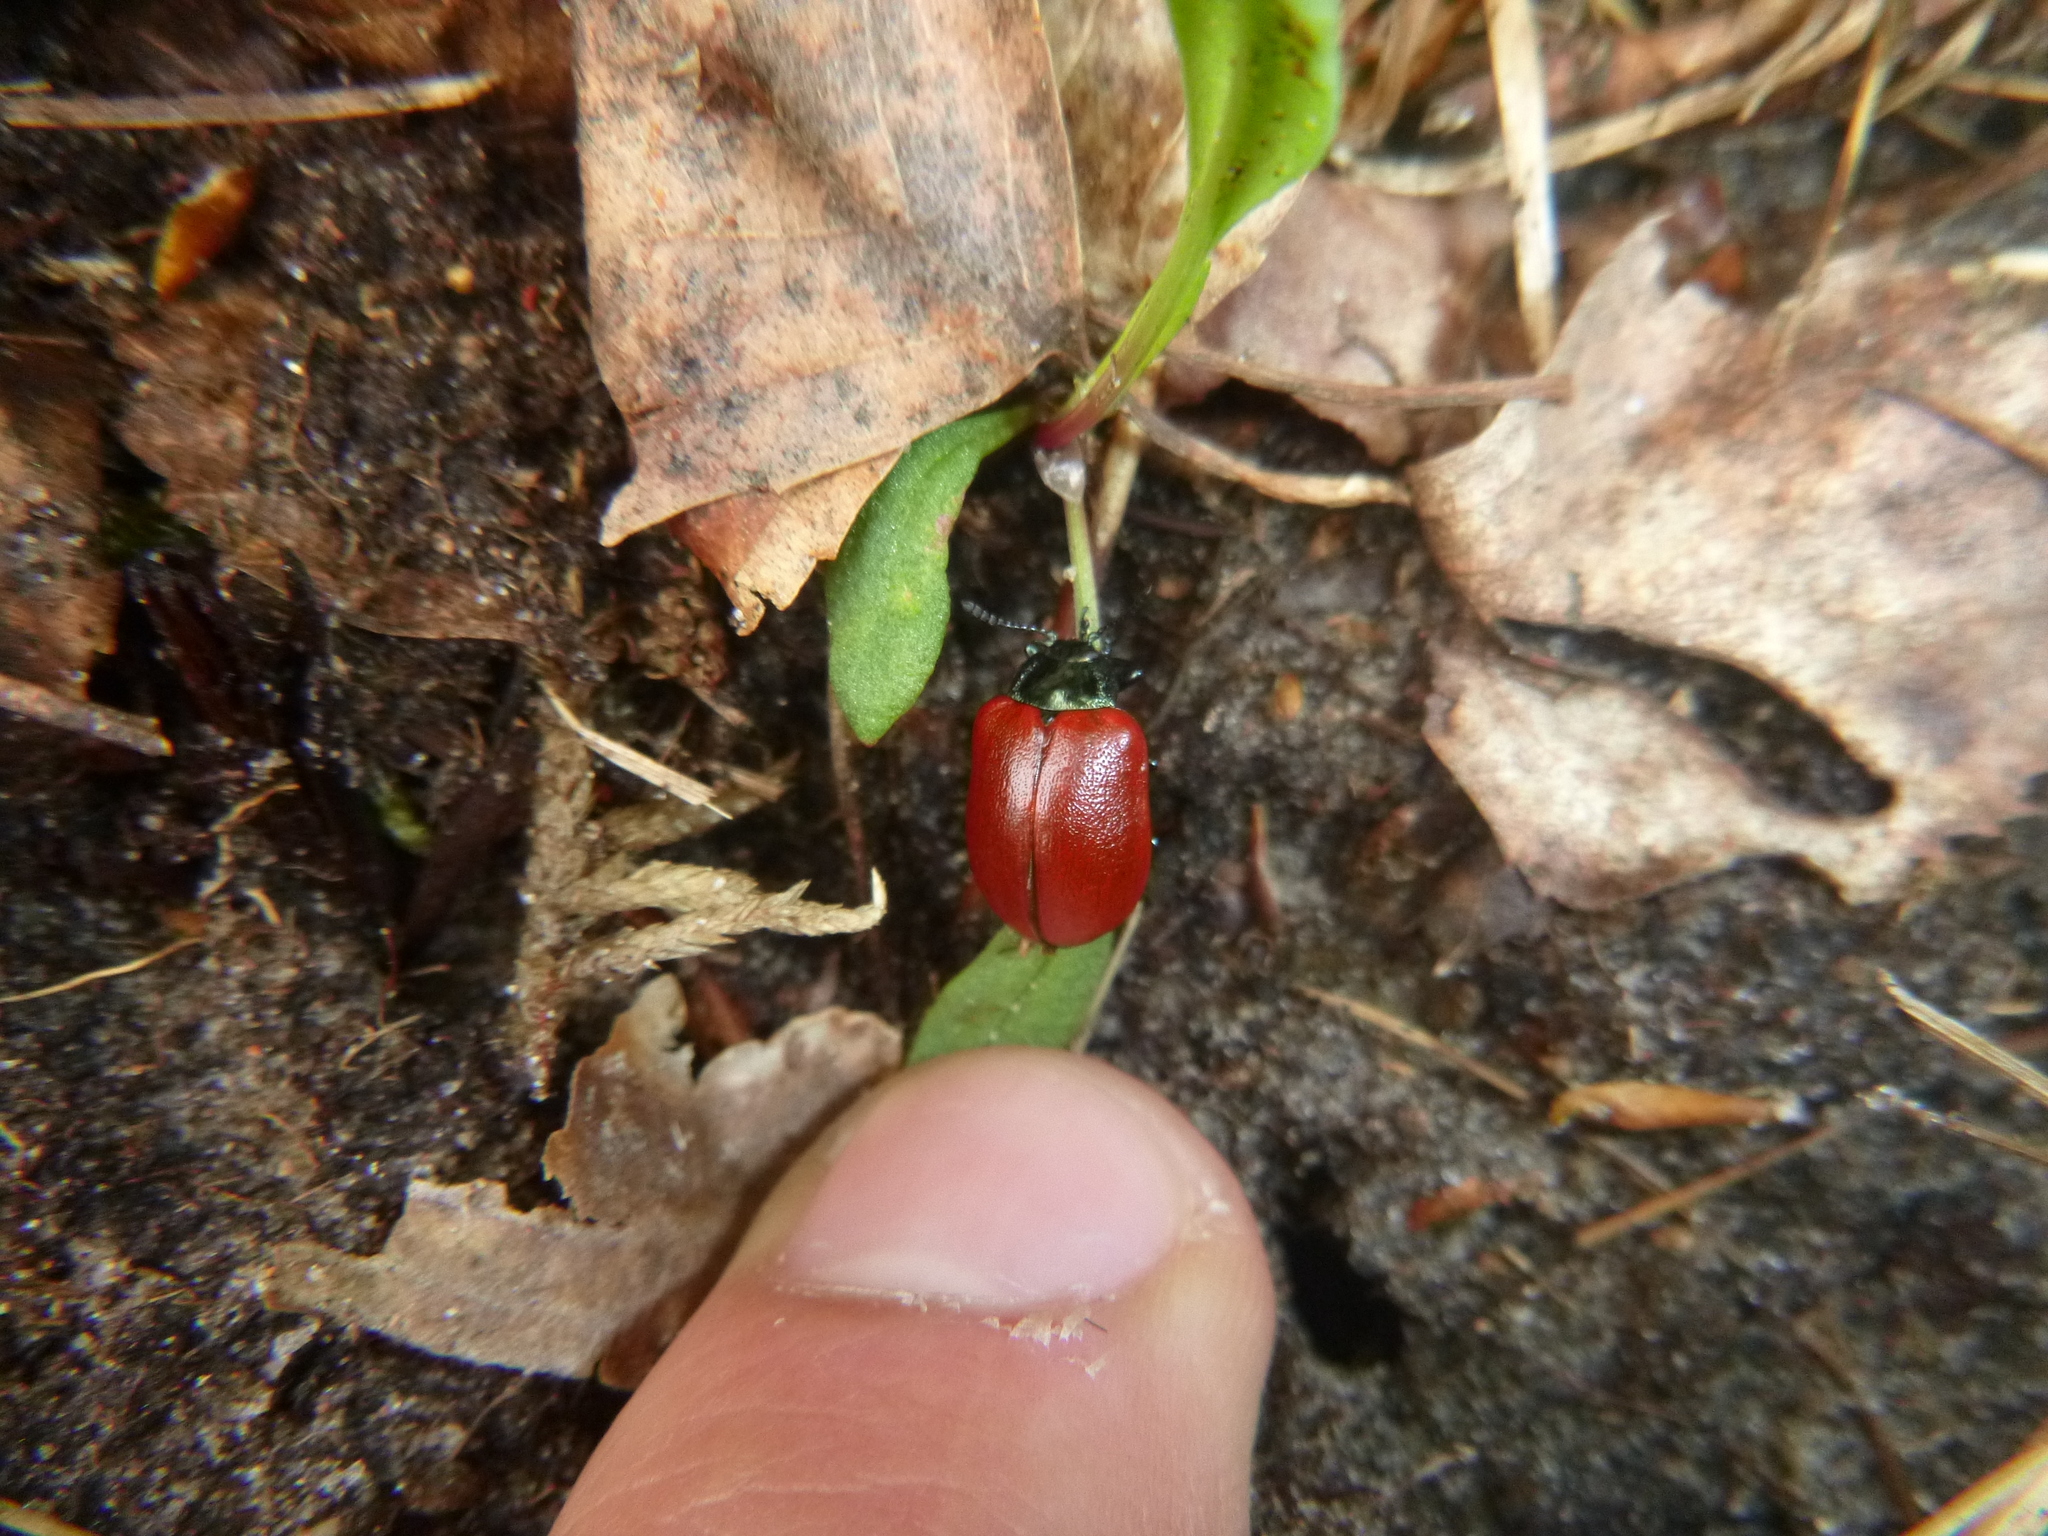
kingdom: Animalia
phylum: Arthropoda
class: Insecta
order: Coleoptera
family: Chrysomelidae
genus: Chrysomela
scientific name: Chrysomela
